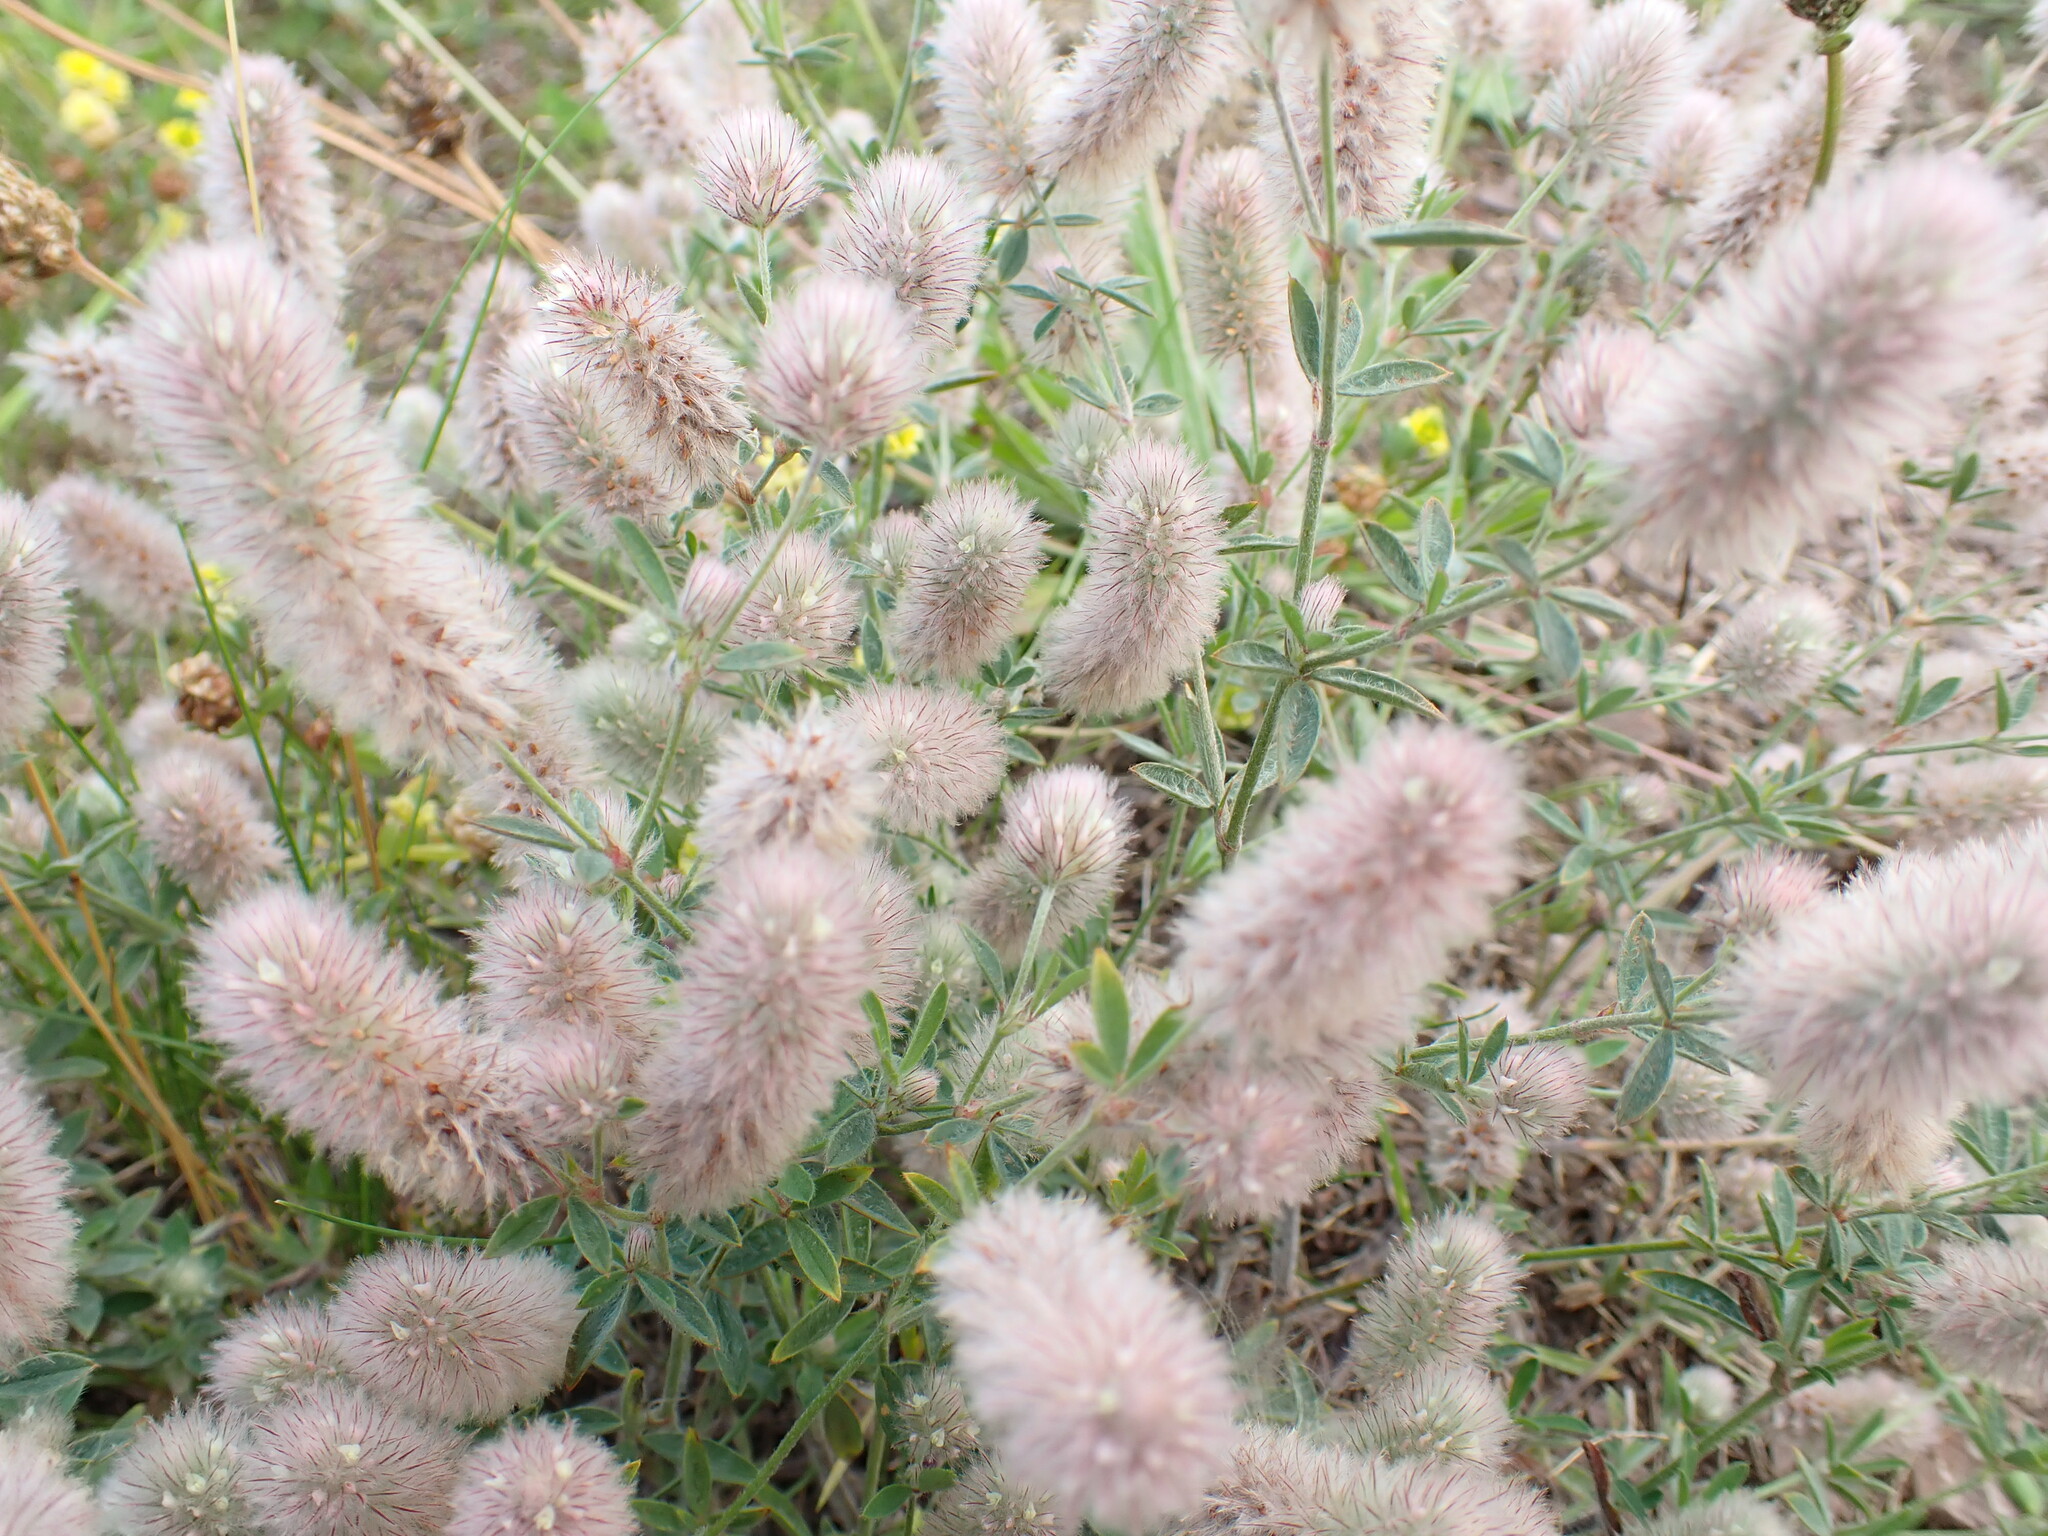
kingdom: Plantae
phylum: Tracheophyta
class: Magnoliopsida
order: Fabales
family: Fabaceae
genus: Trifolium
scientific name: Trifolium arvense
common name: Hare's-foot clover
